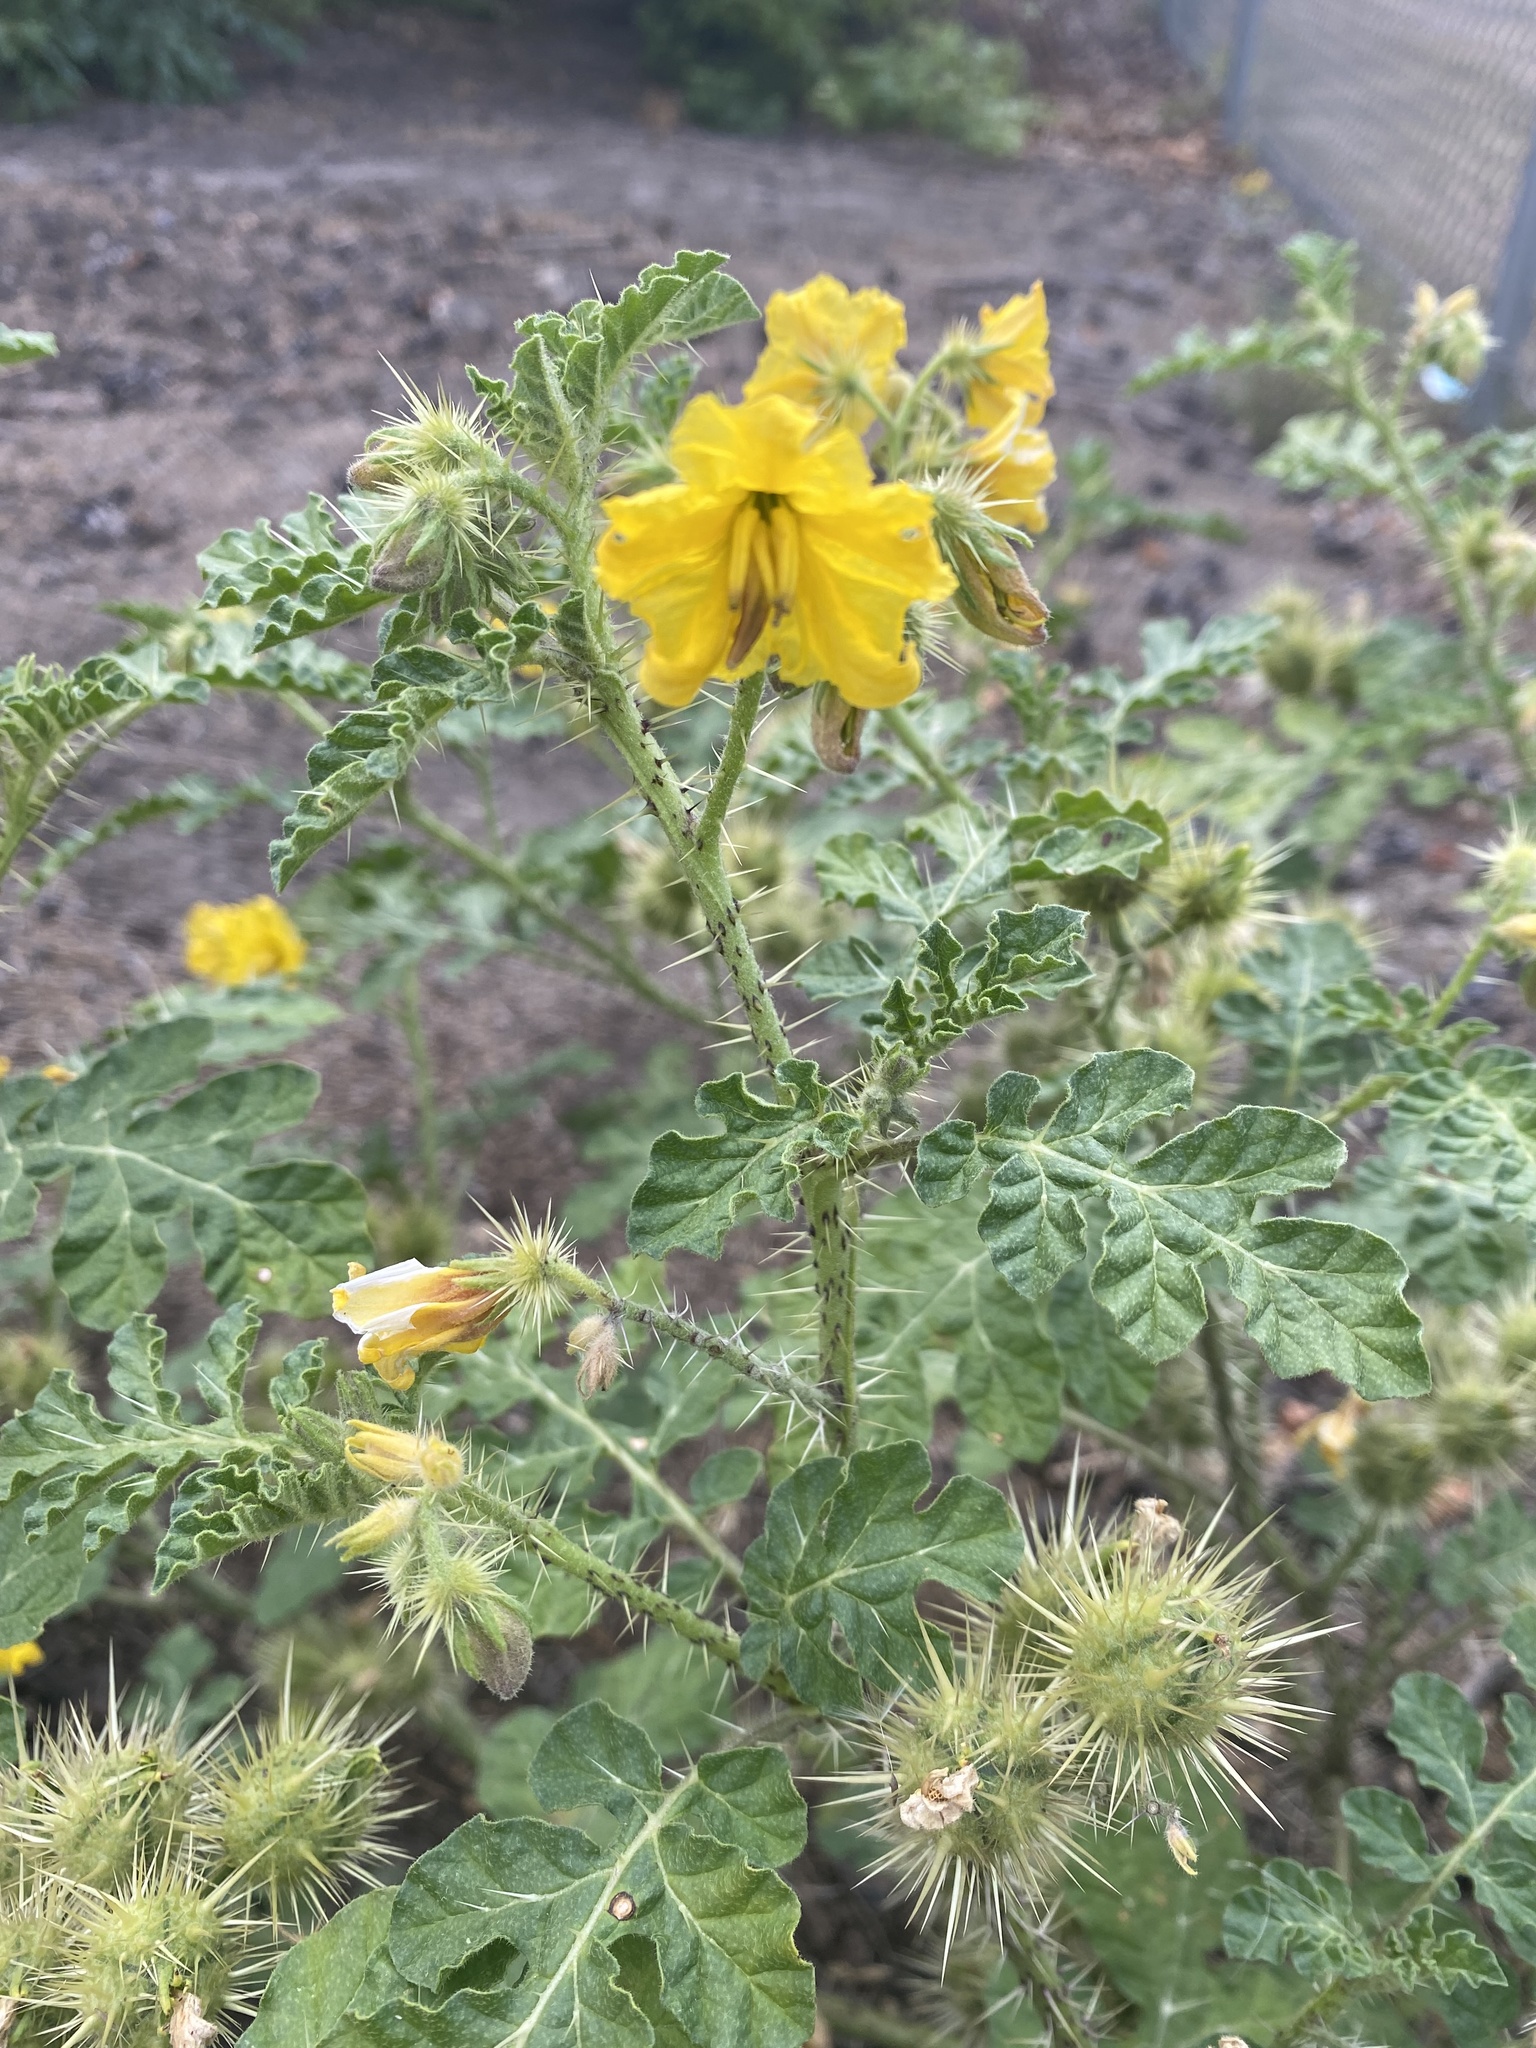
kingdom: Plantae
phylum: Tracheophyta
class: Magnoliopsida
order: Solanales
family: Solanaceae
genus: Solanum
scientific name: Solanum angustifolium
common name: Buffalobur nightshade
